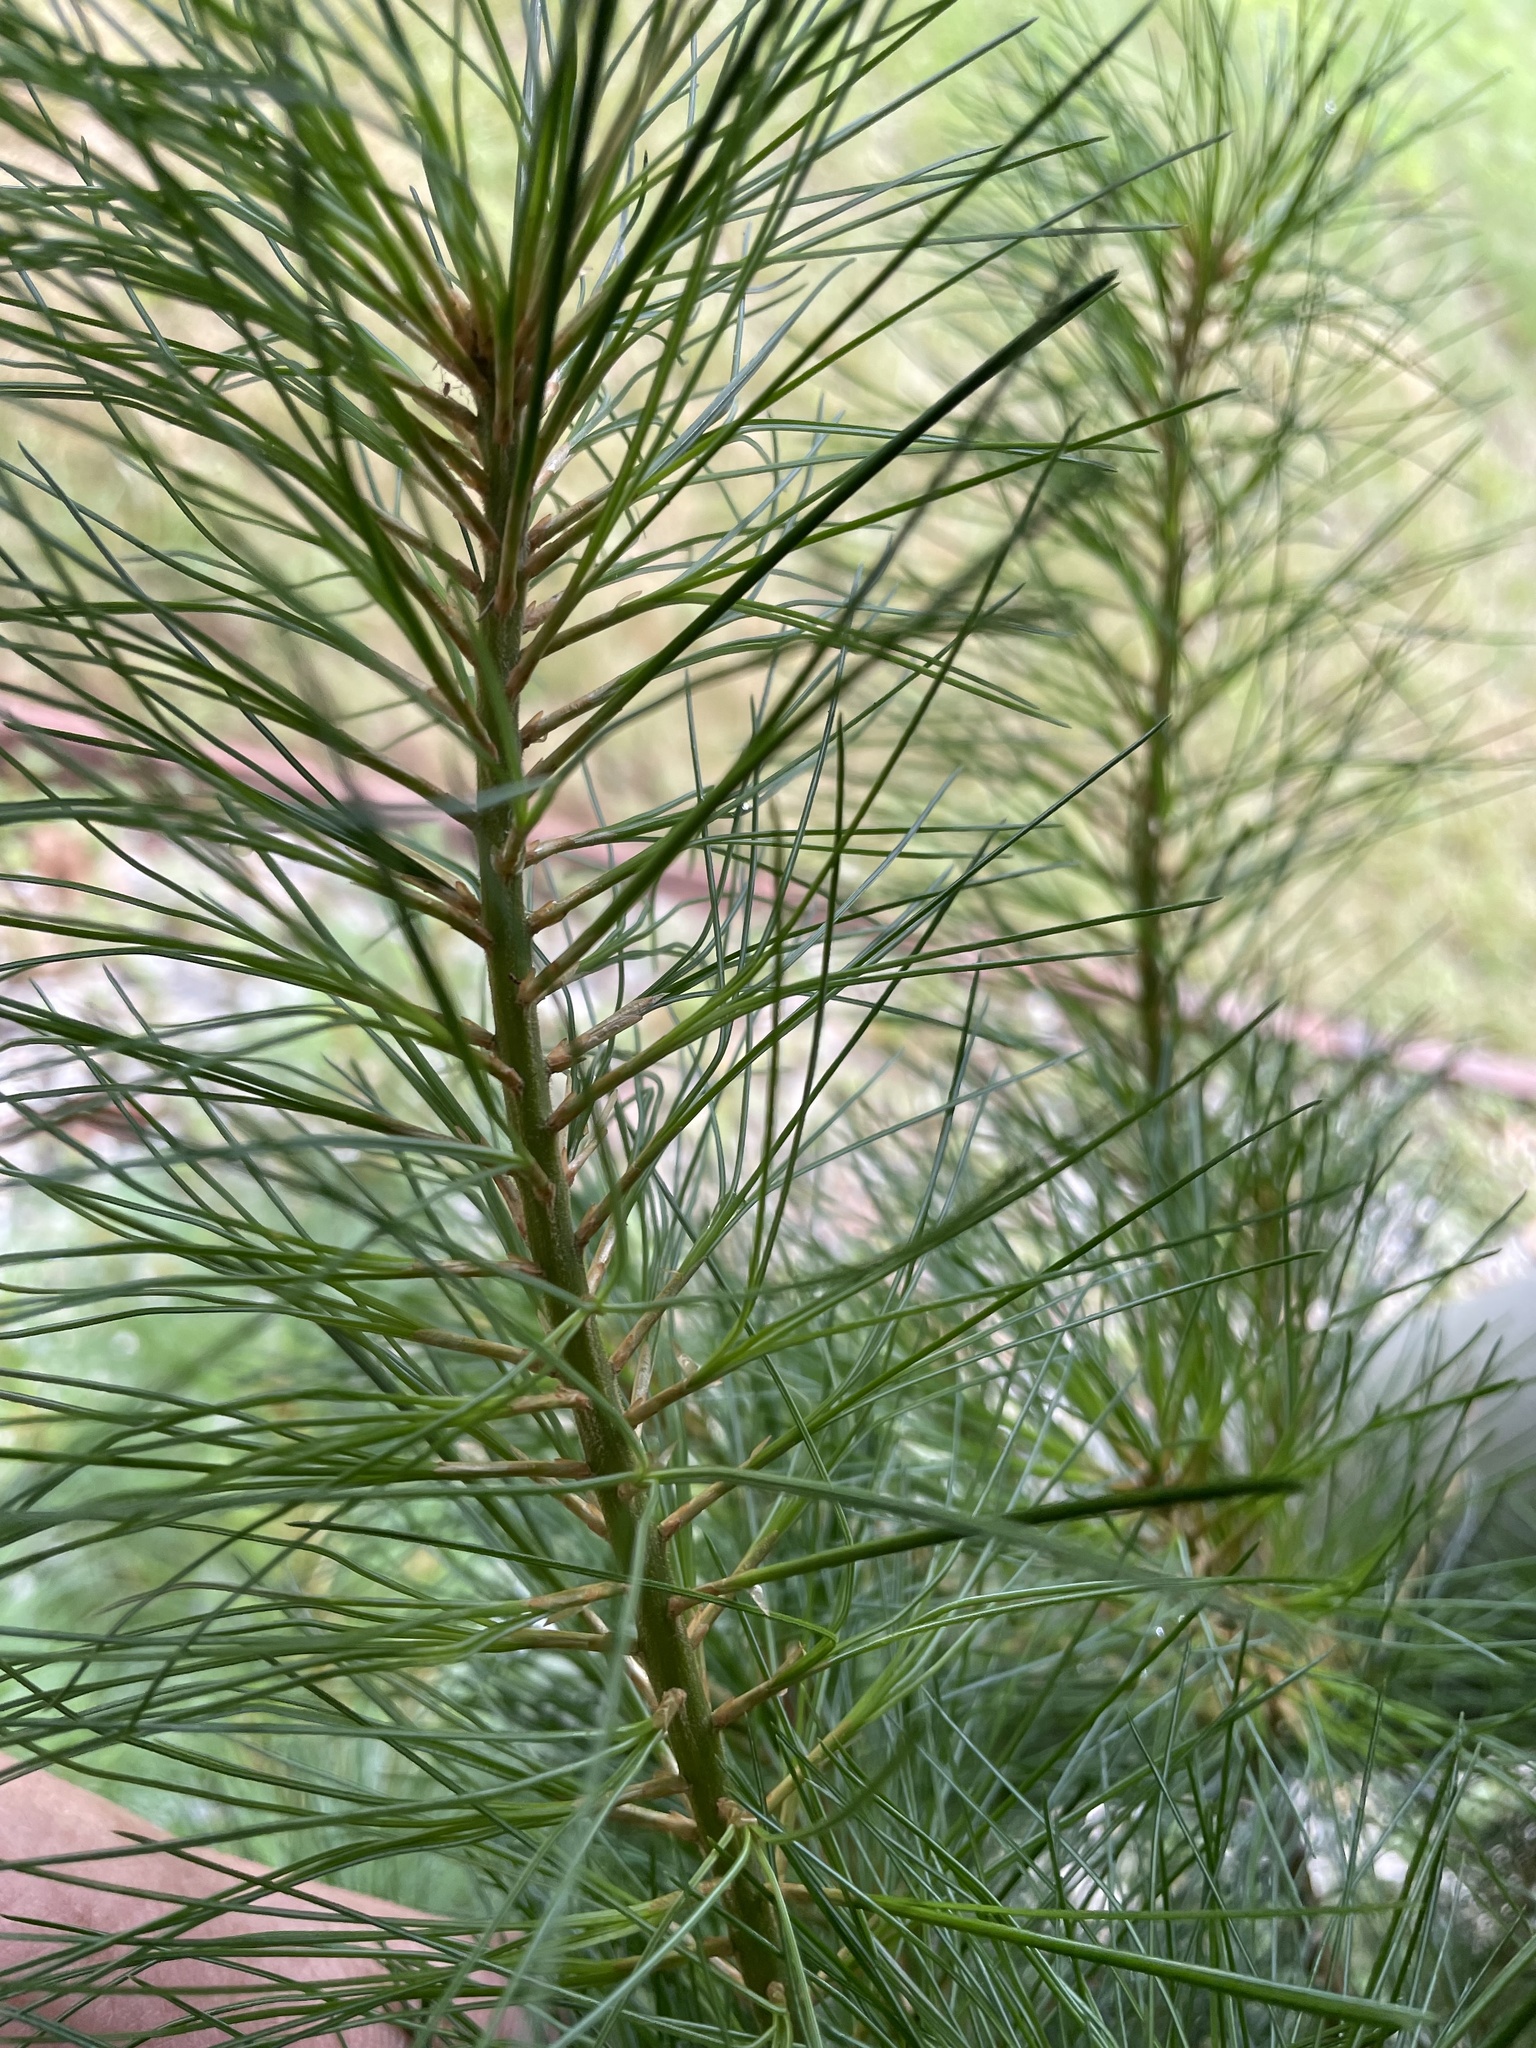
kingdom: Plantae
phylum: Tracheophyta
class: Pinopsida
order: Pinales
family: Pinaceae
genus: Pinus
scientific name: Pinus strobus
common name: Weymouth pine
